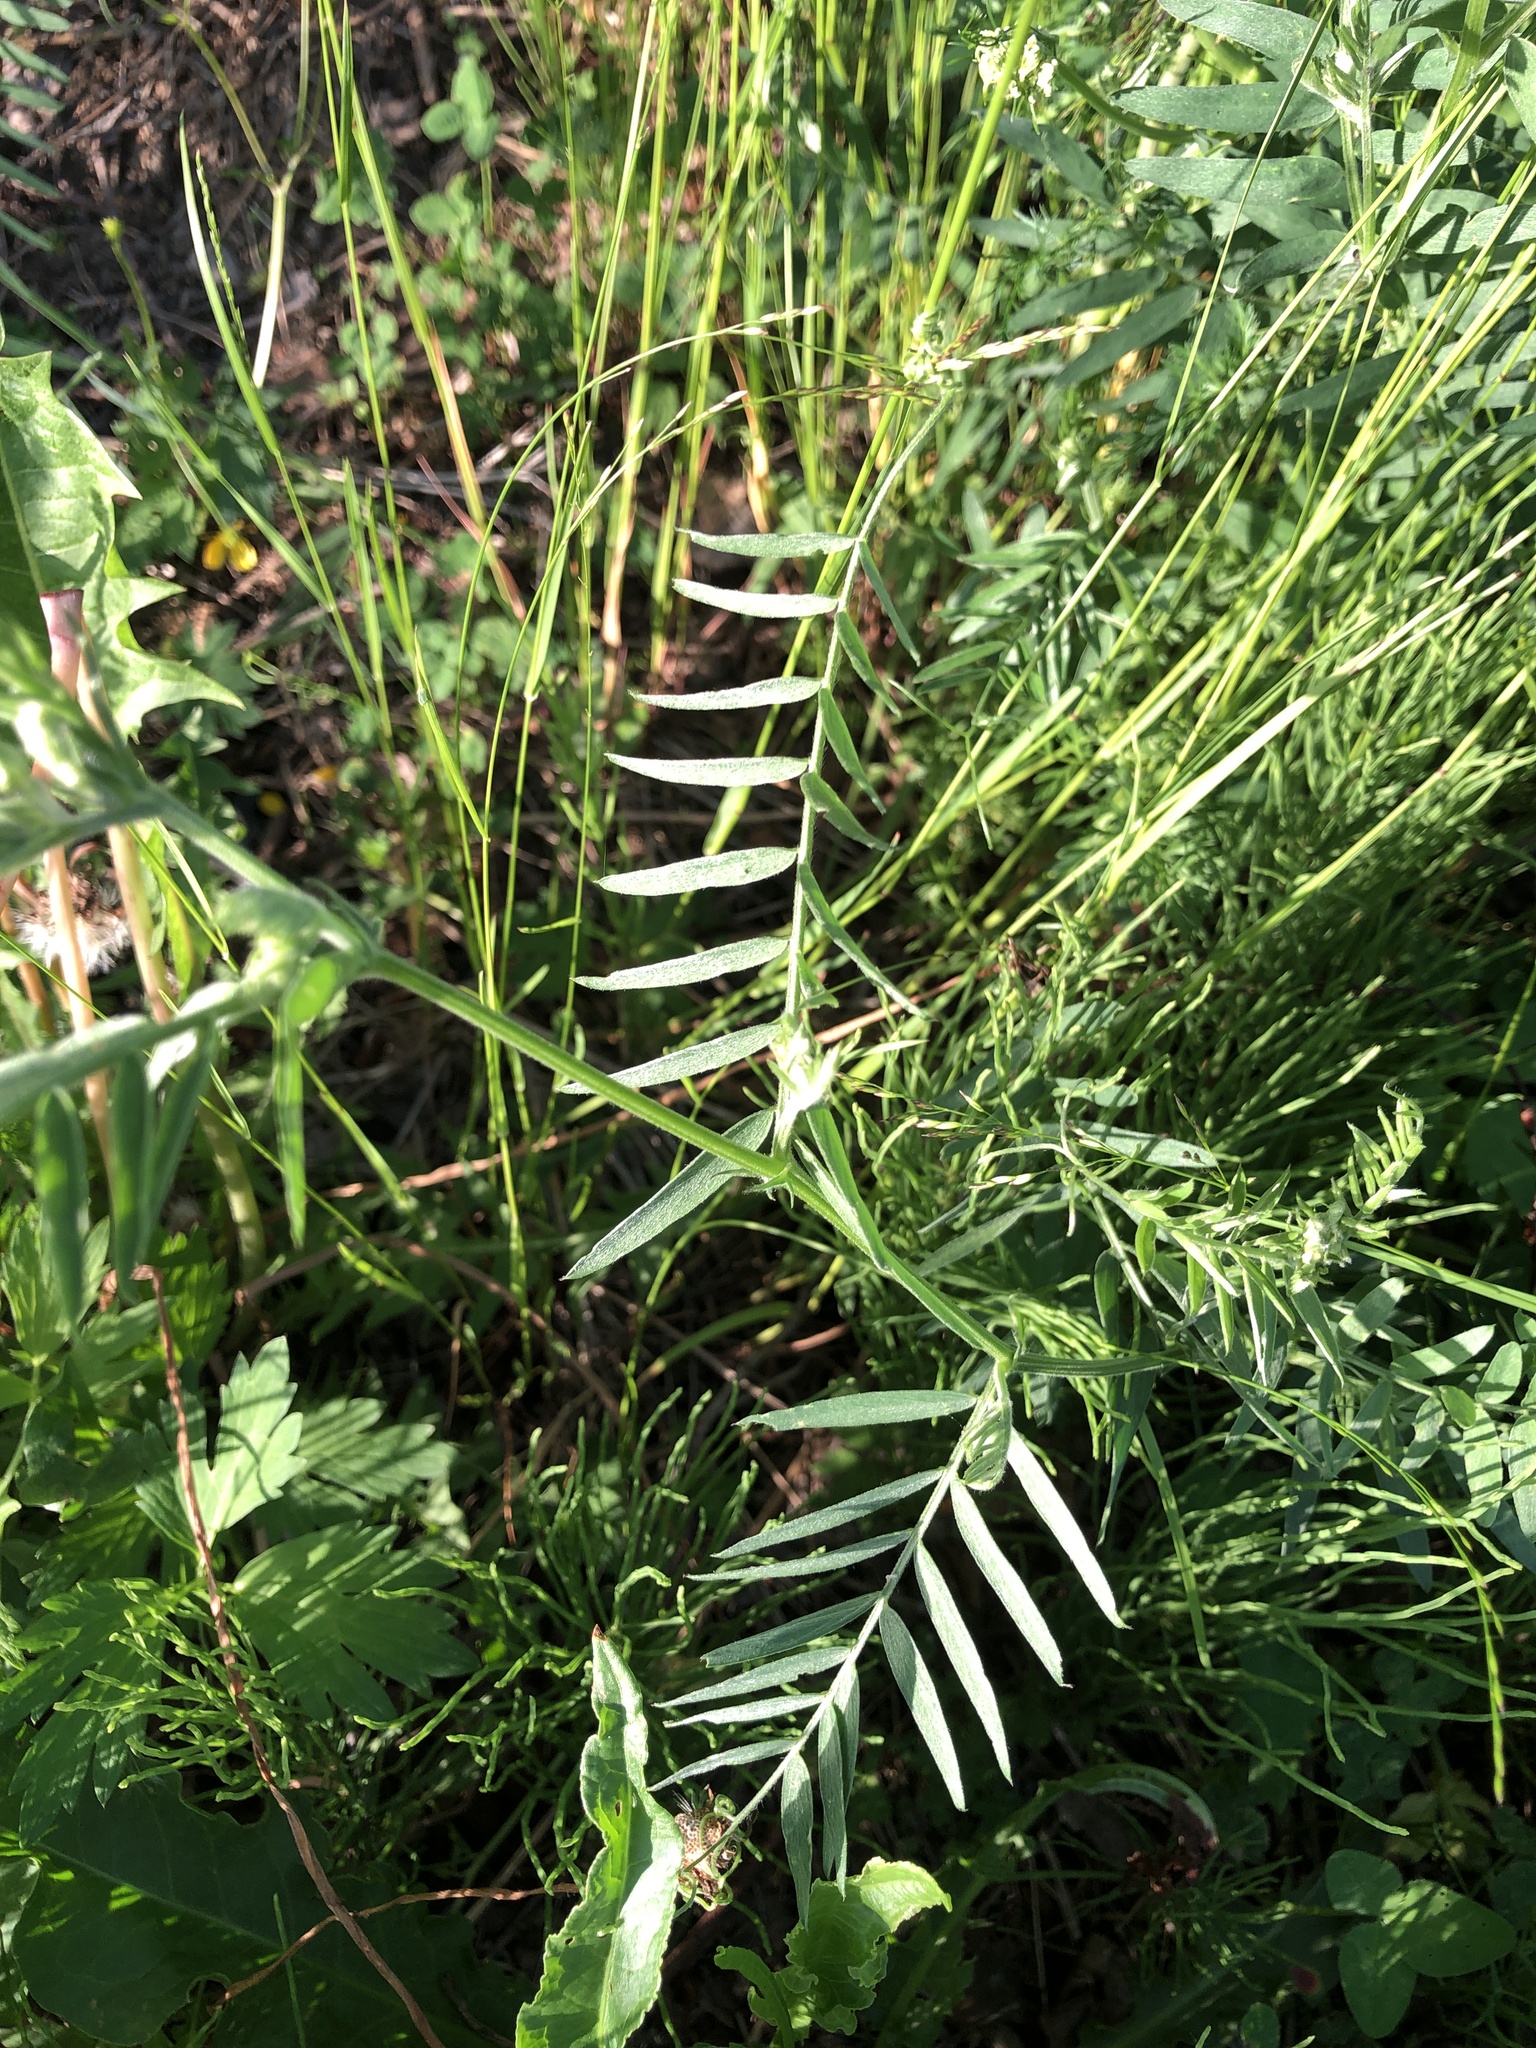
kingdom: Plantae
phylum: Tracheophyta
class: Magnoliopsida
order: Fabales
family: Fabaceae
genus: Vicia
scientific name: Vicia cracca
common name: Bird vetch
